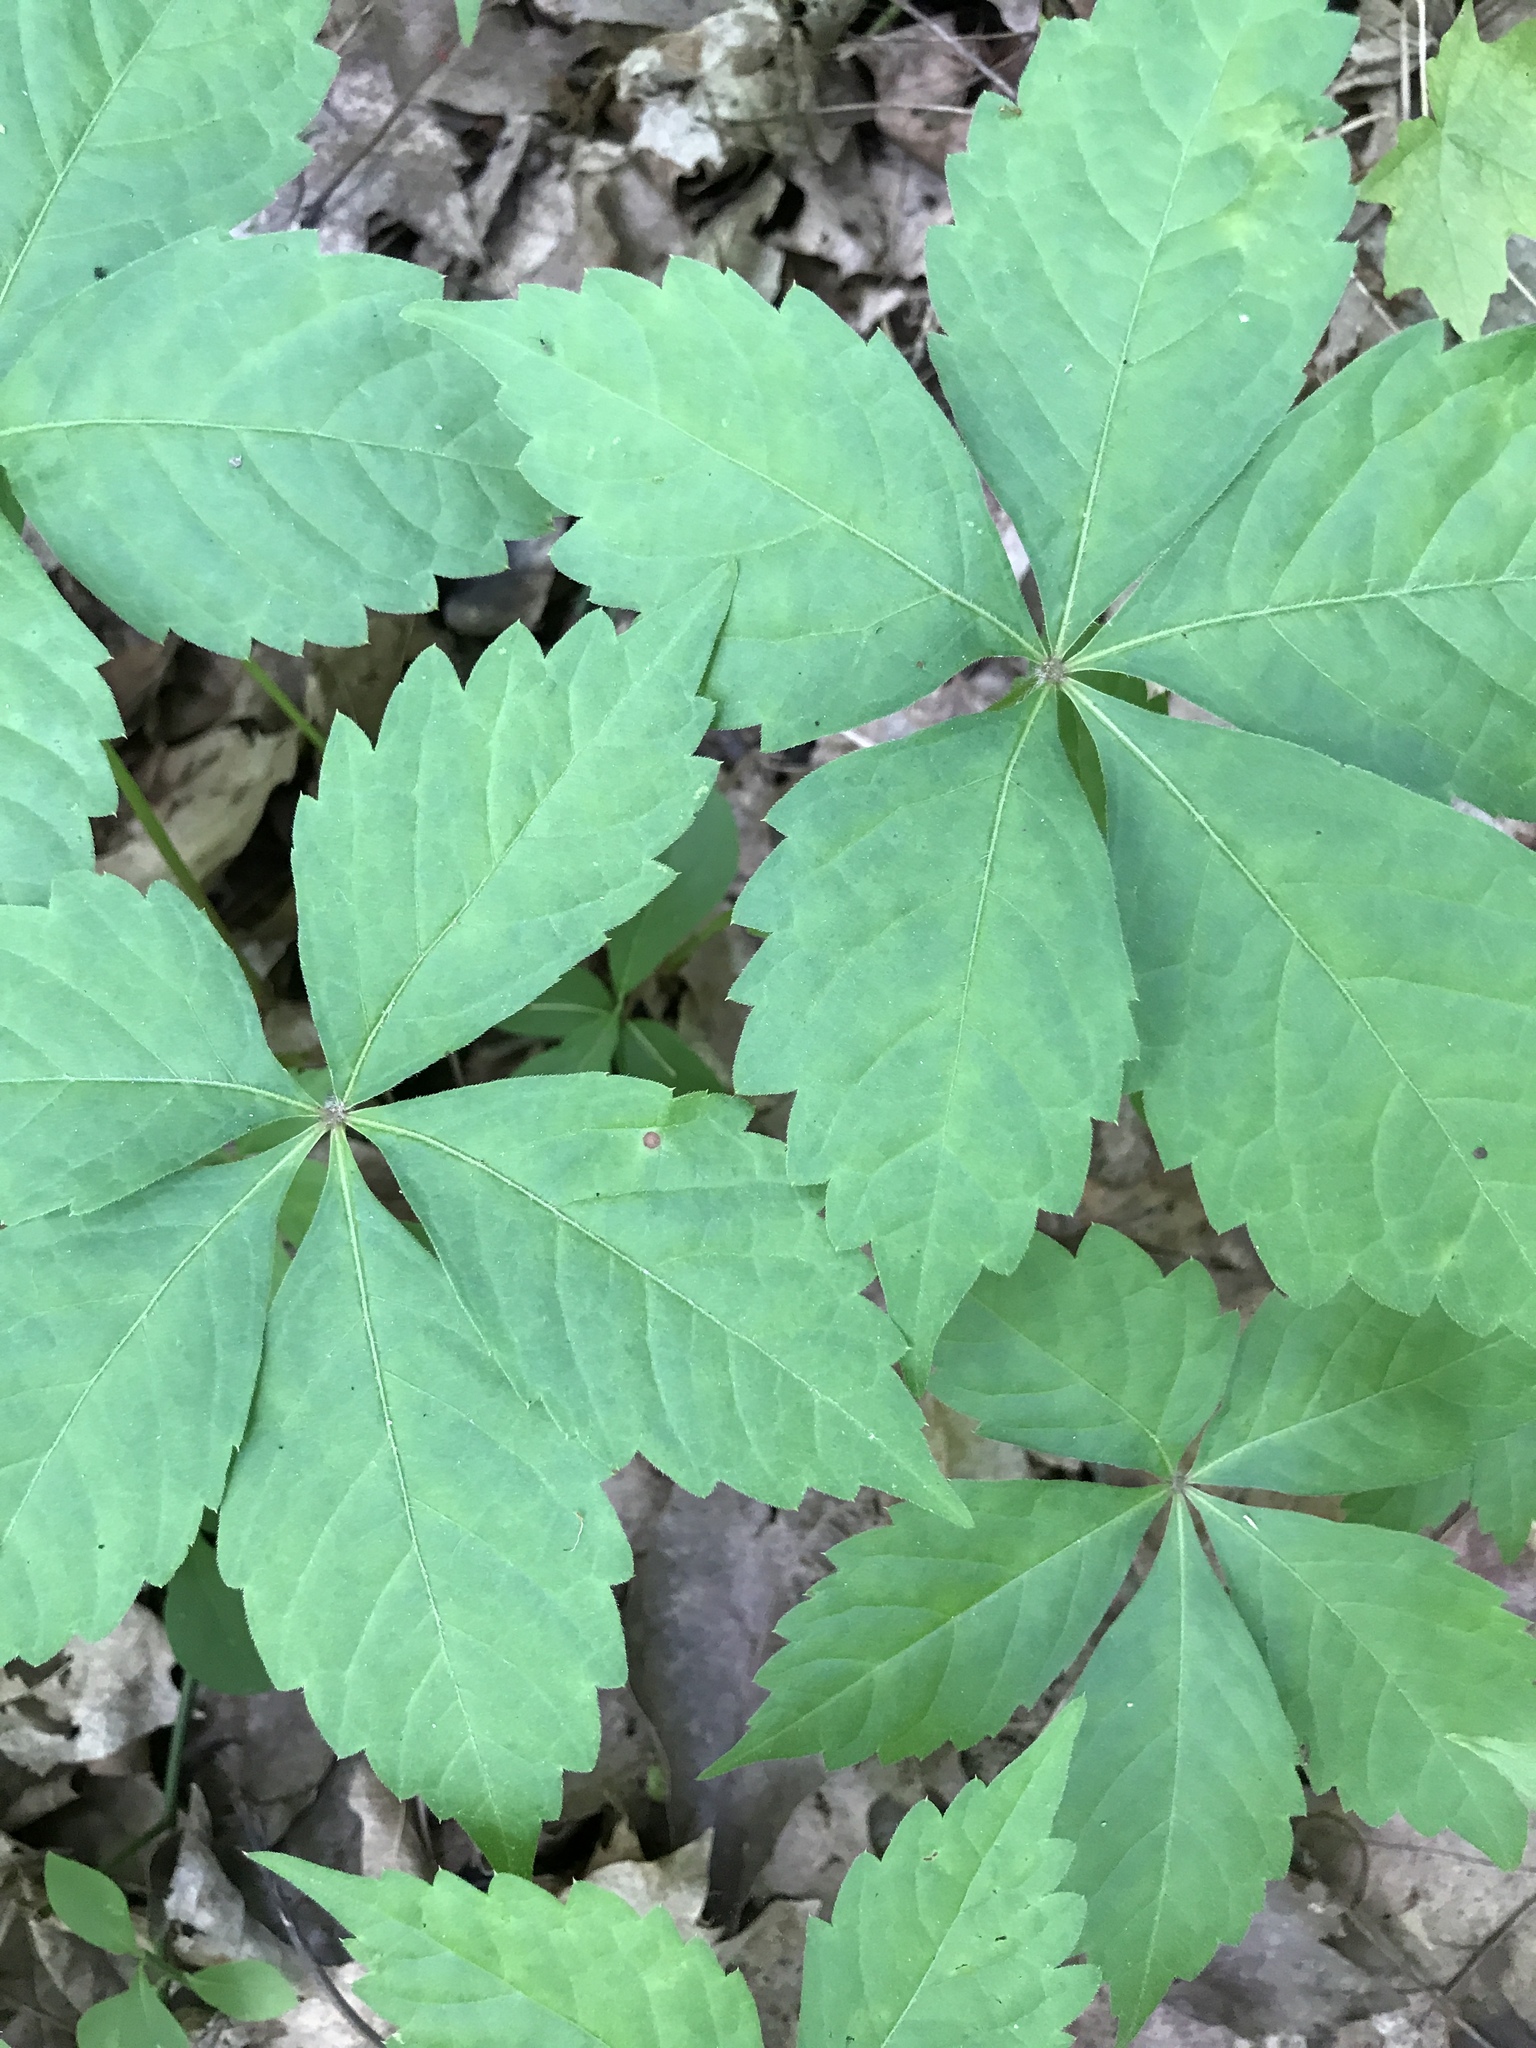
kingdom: Plantae
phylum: Tracheophyta
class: Magnoliopsida
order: Vitales
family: Vitaceae
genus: Parthenocissus
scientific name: Parthenocissus quinquefolia
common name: Virginia-creeper
